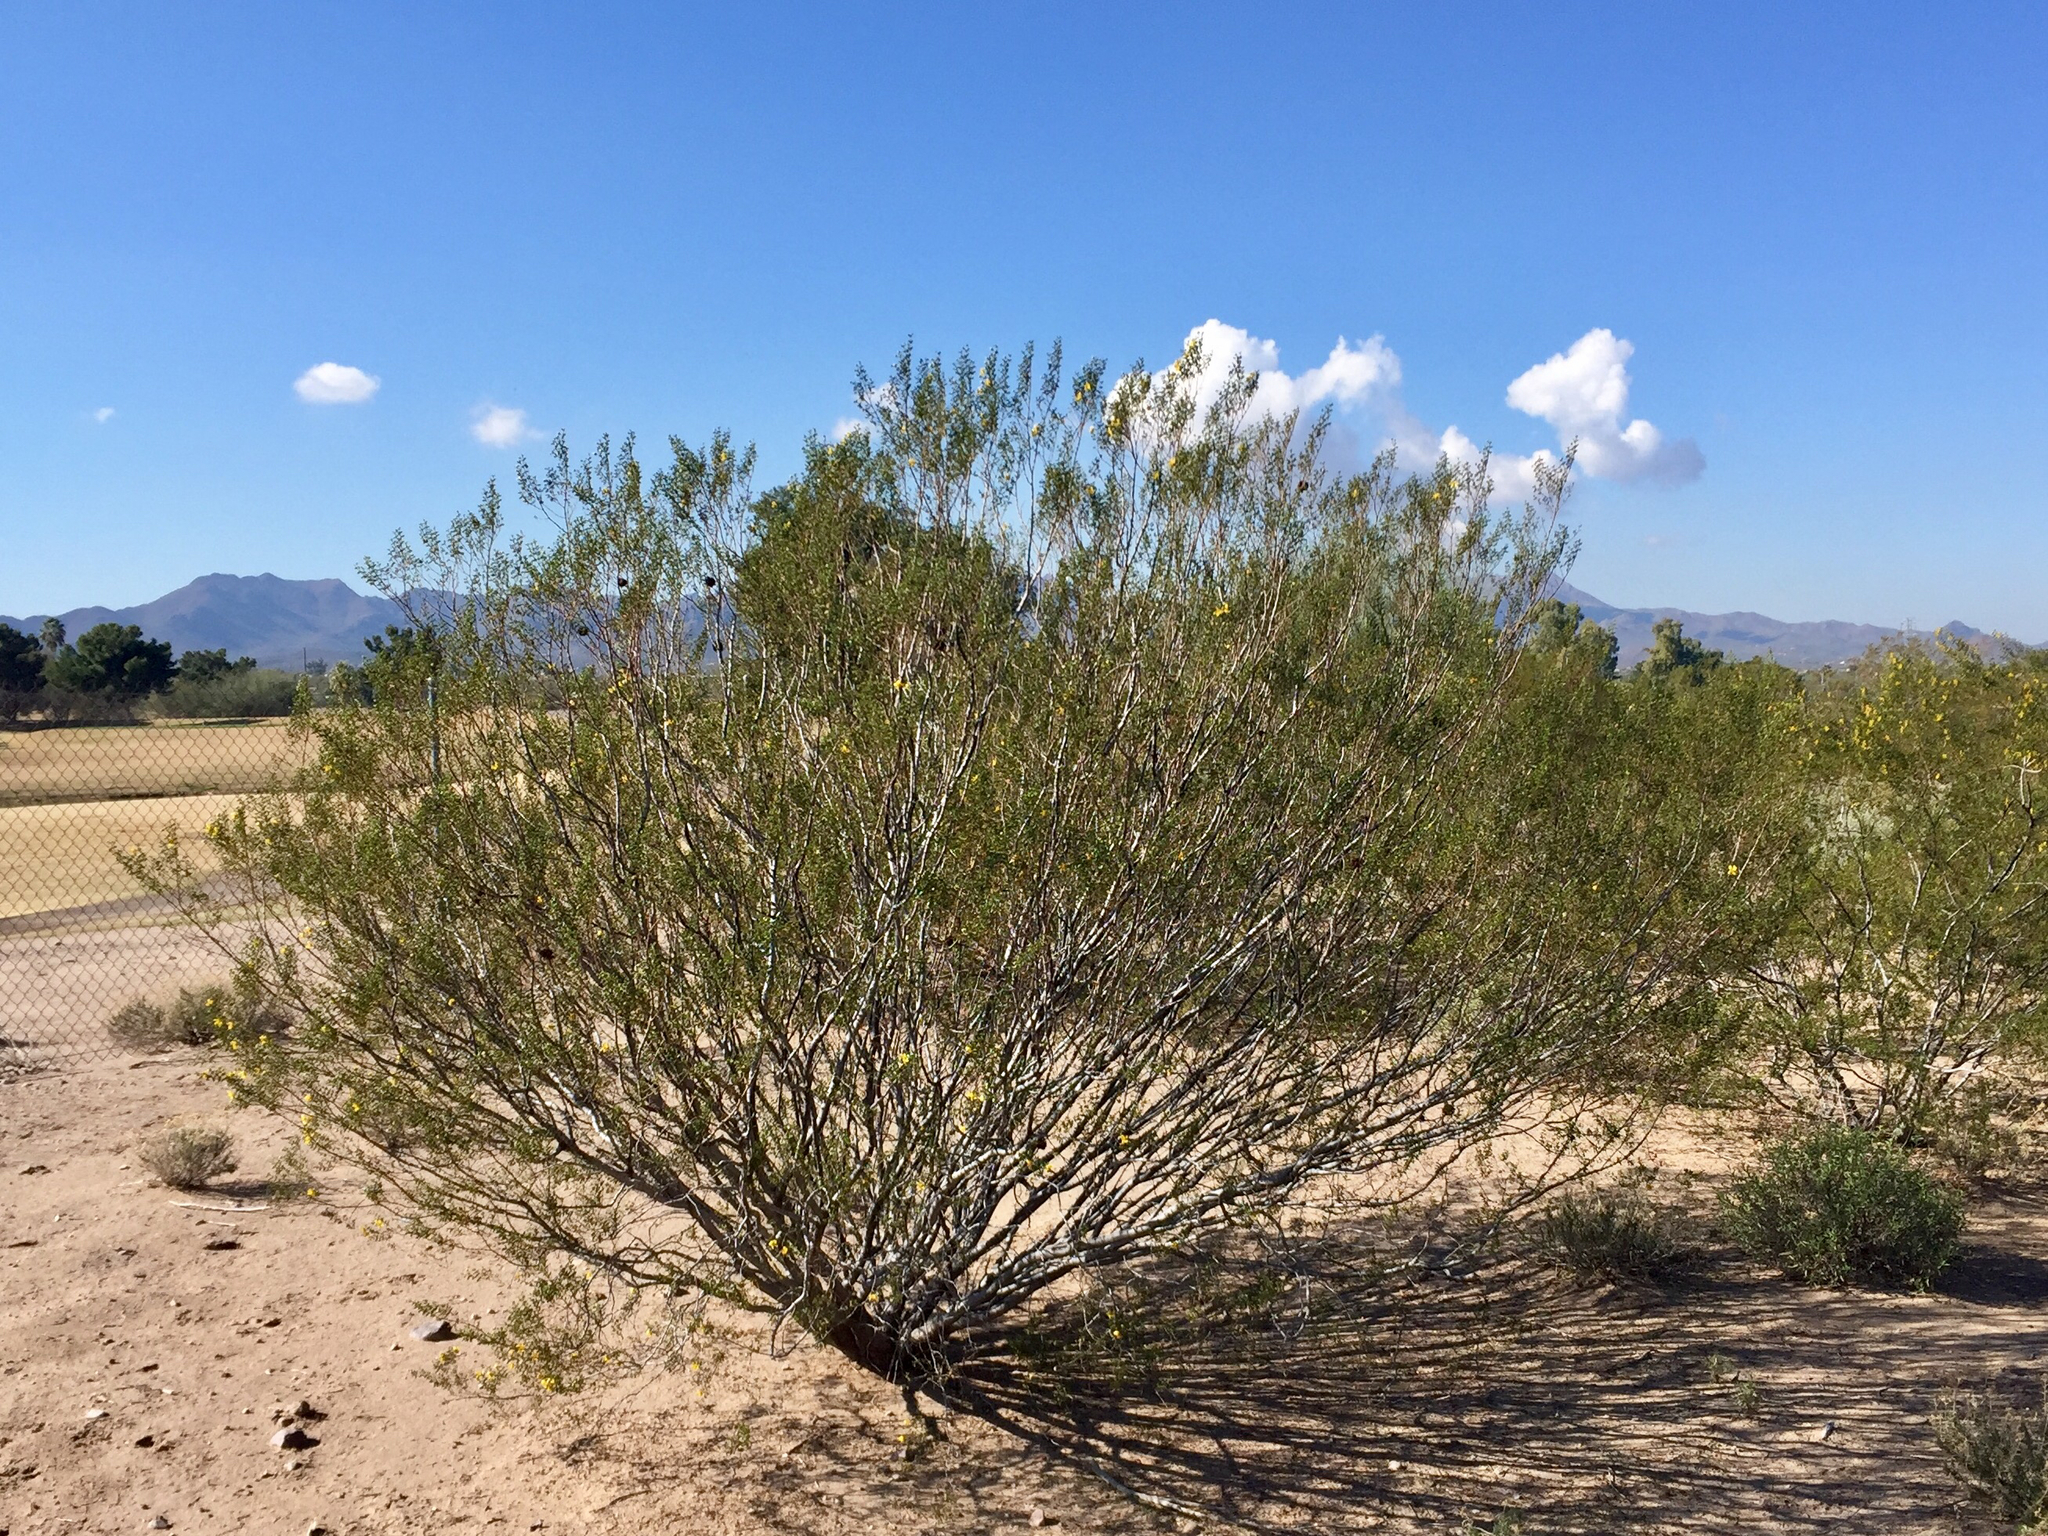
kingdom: Plantae
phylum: Tracheophyta
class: Magnoliopsida
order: Zygophyllales
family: Zygophyllaceae
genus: Larrea
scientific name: Larrea tridentata
